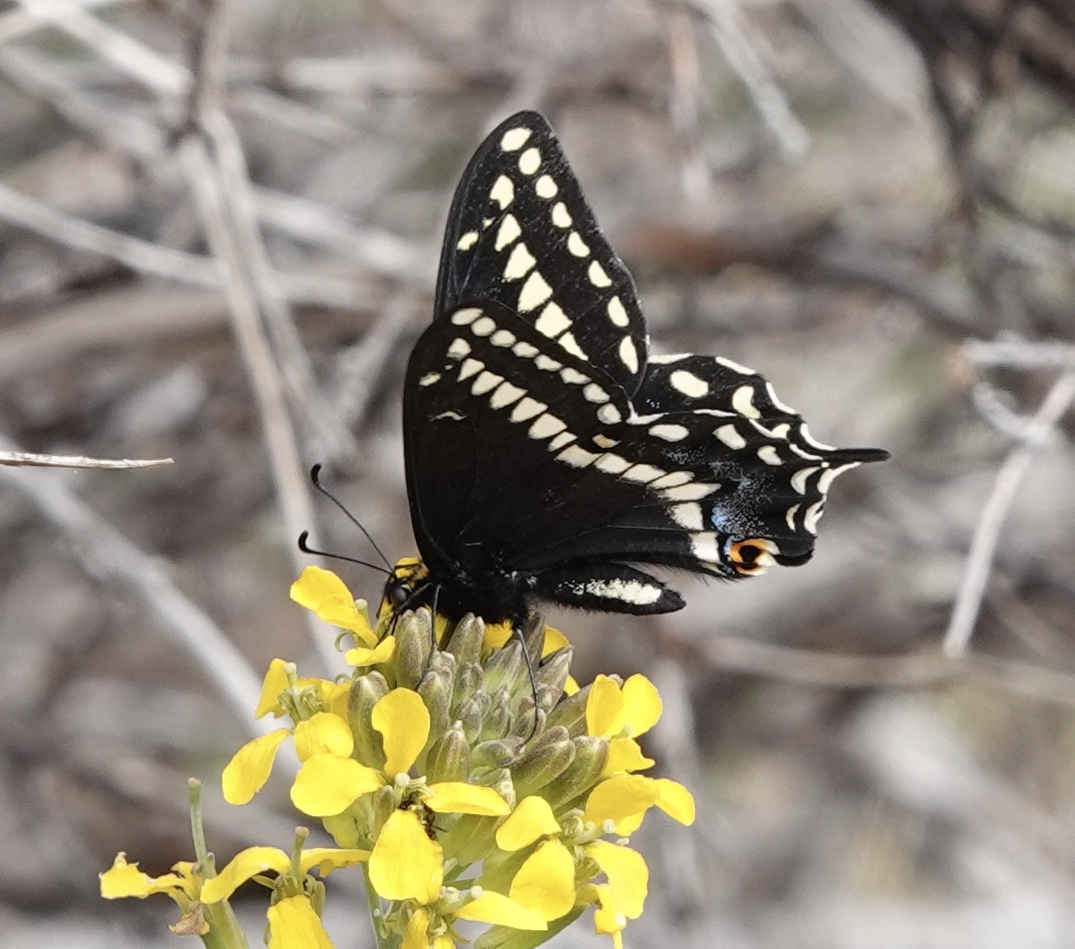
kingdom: Animalia
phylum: Arthropoda
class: Insecta
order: Lepidoptera
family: Papilionidae
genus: Papilio
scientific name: Papilio indra
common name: Cliff swallowtail
